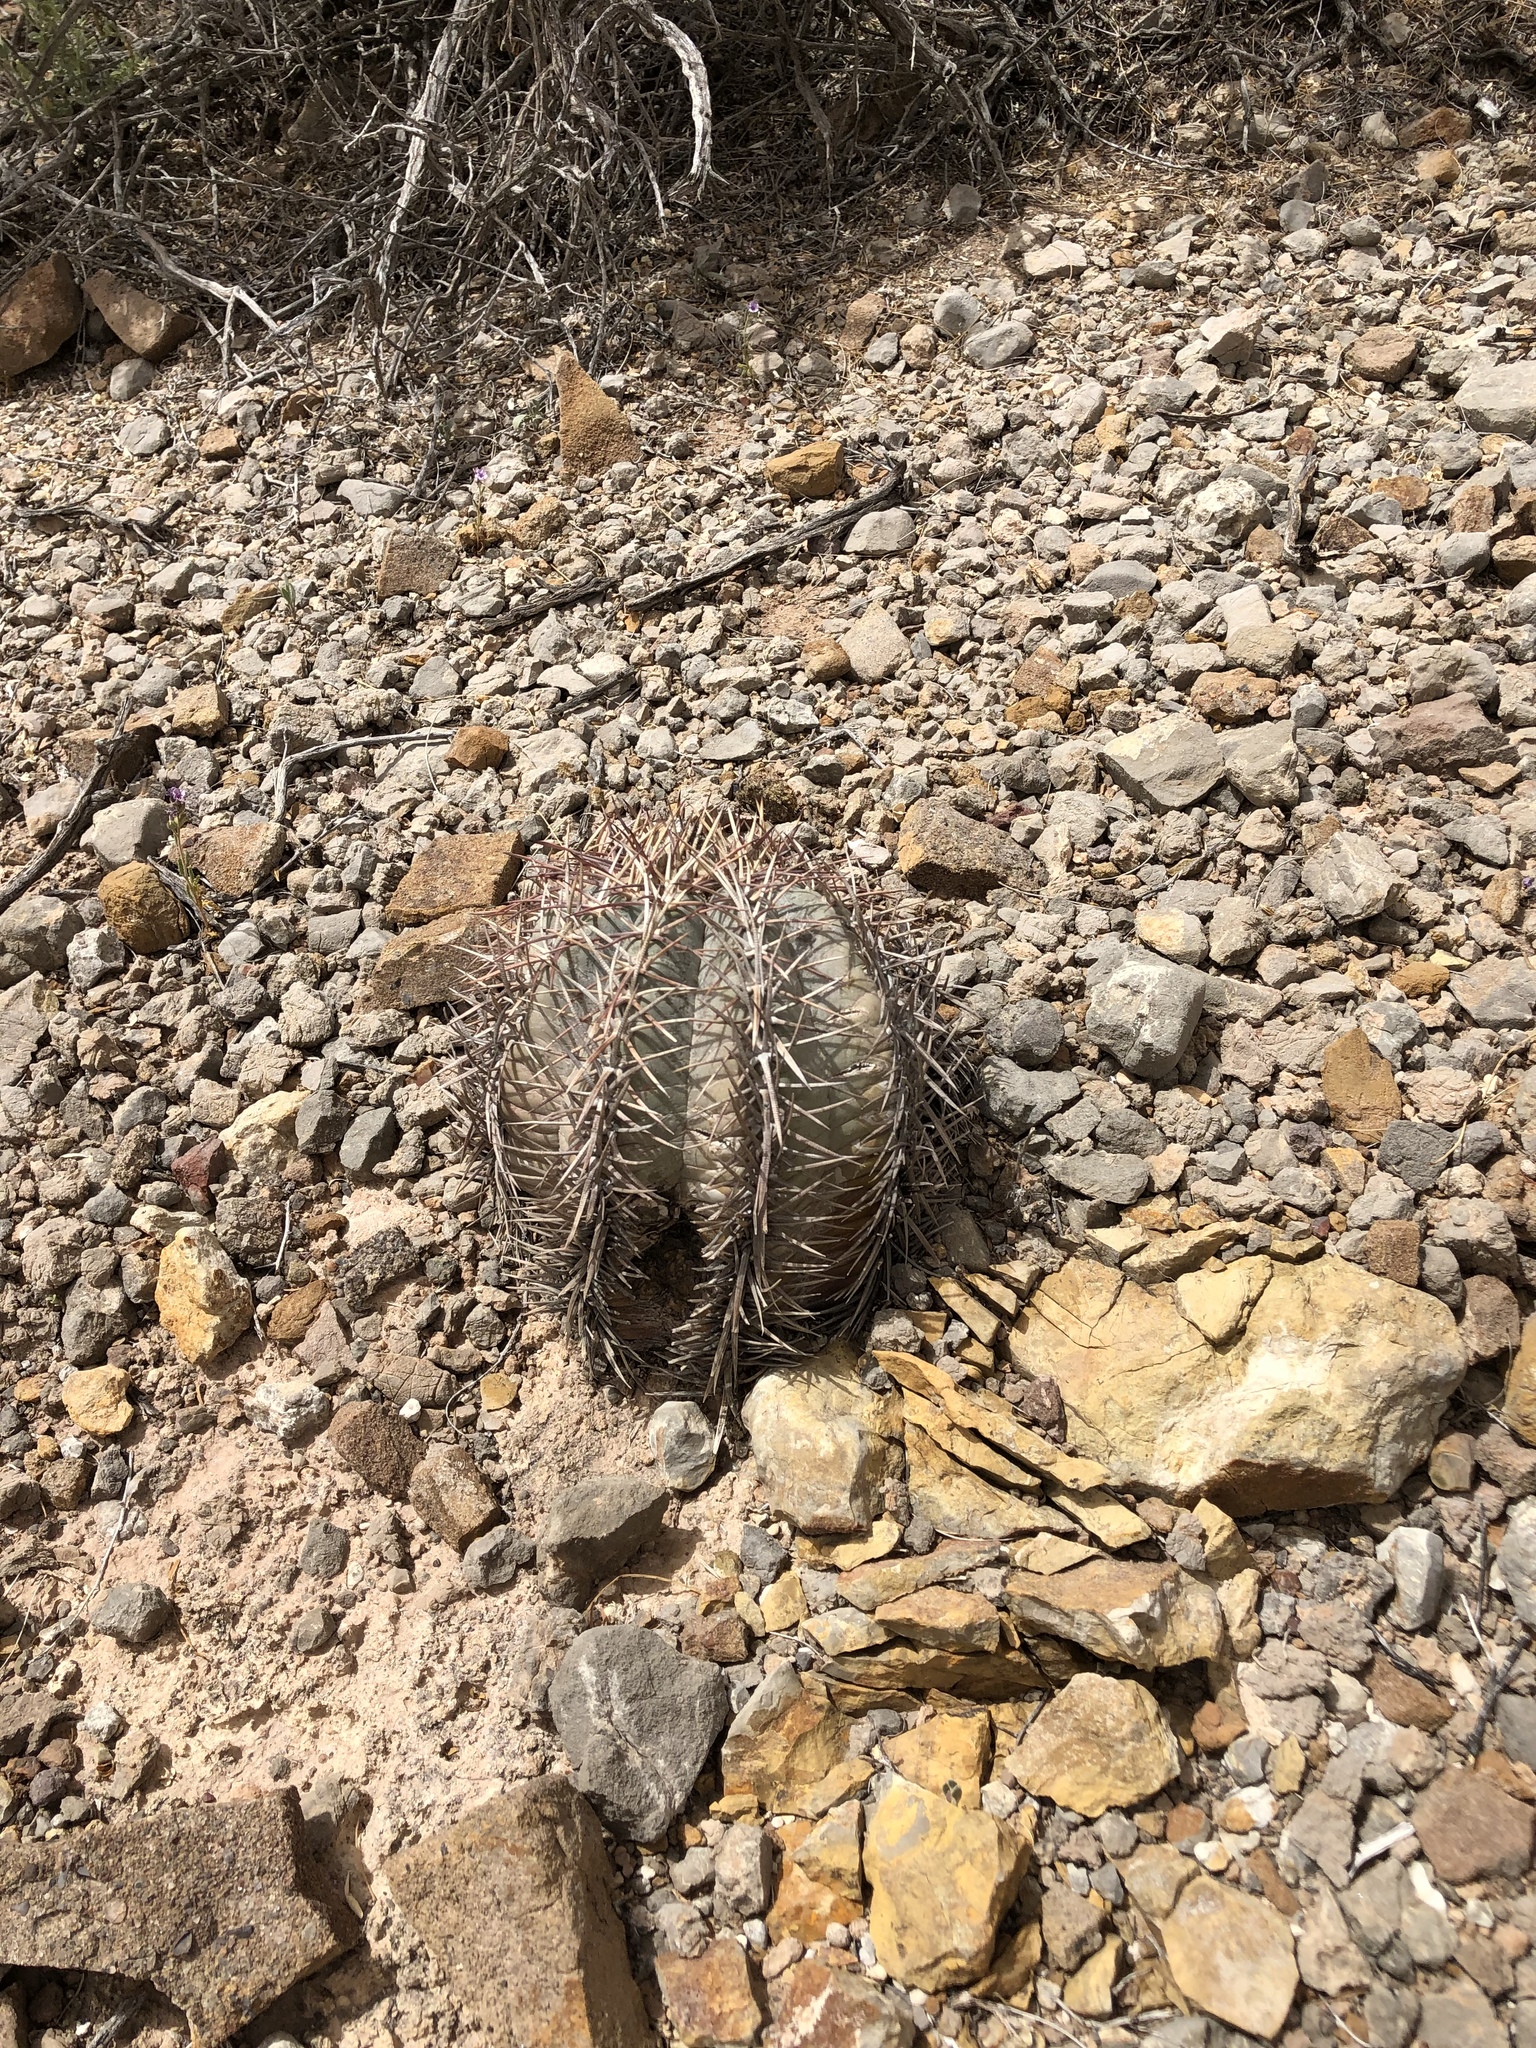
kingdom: Plantae
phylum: Tracheophyta
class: Magnoliopsida
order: Caryophyllales
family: Cactaceae
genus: Echinocactus
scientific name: Echinocactus horizonthalonius
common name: Devilshead
